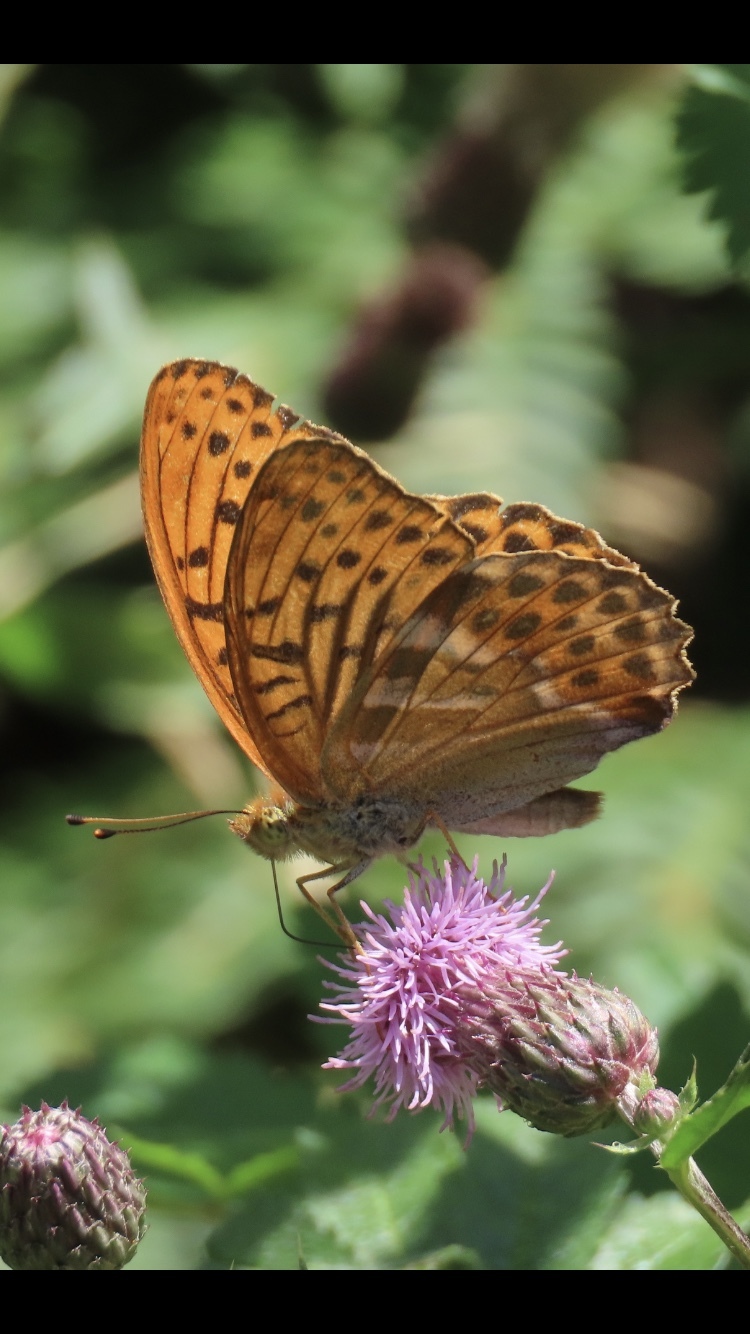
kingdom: Animalia
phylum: Arthropoda
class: Insecta
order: Lepidoptera
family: Nymphalidae
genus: Argynnis
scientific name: Argynnis paphia
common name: Silver-washed fritillary
